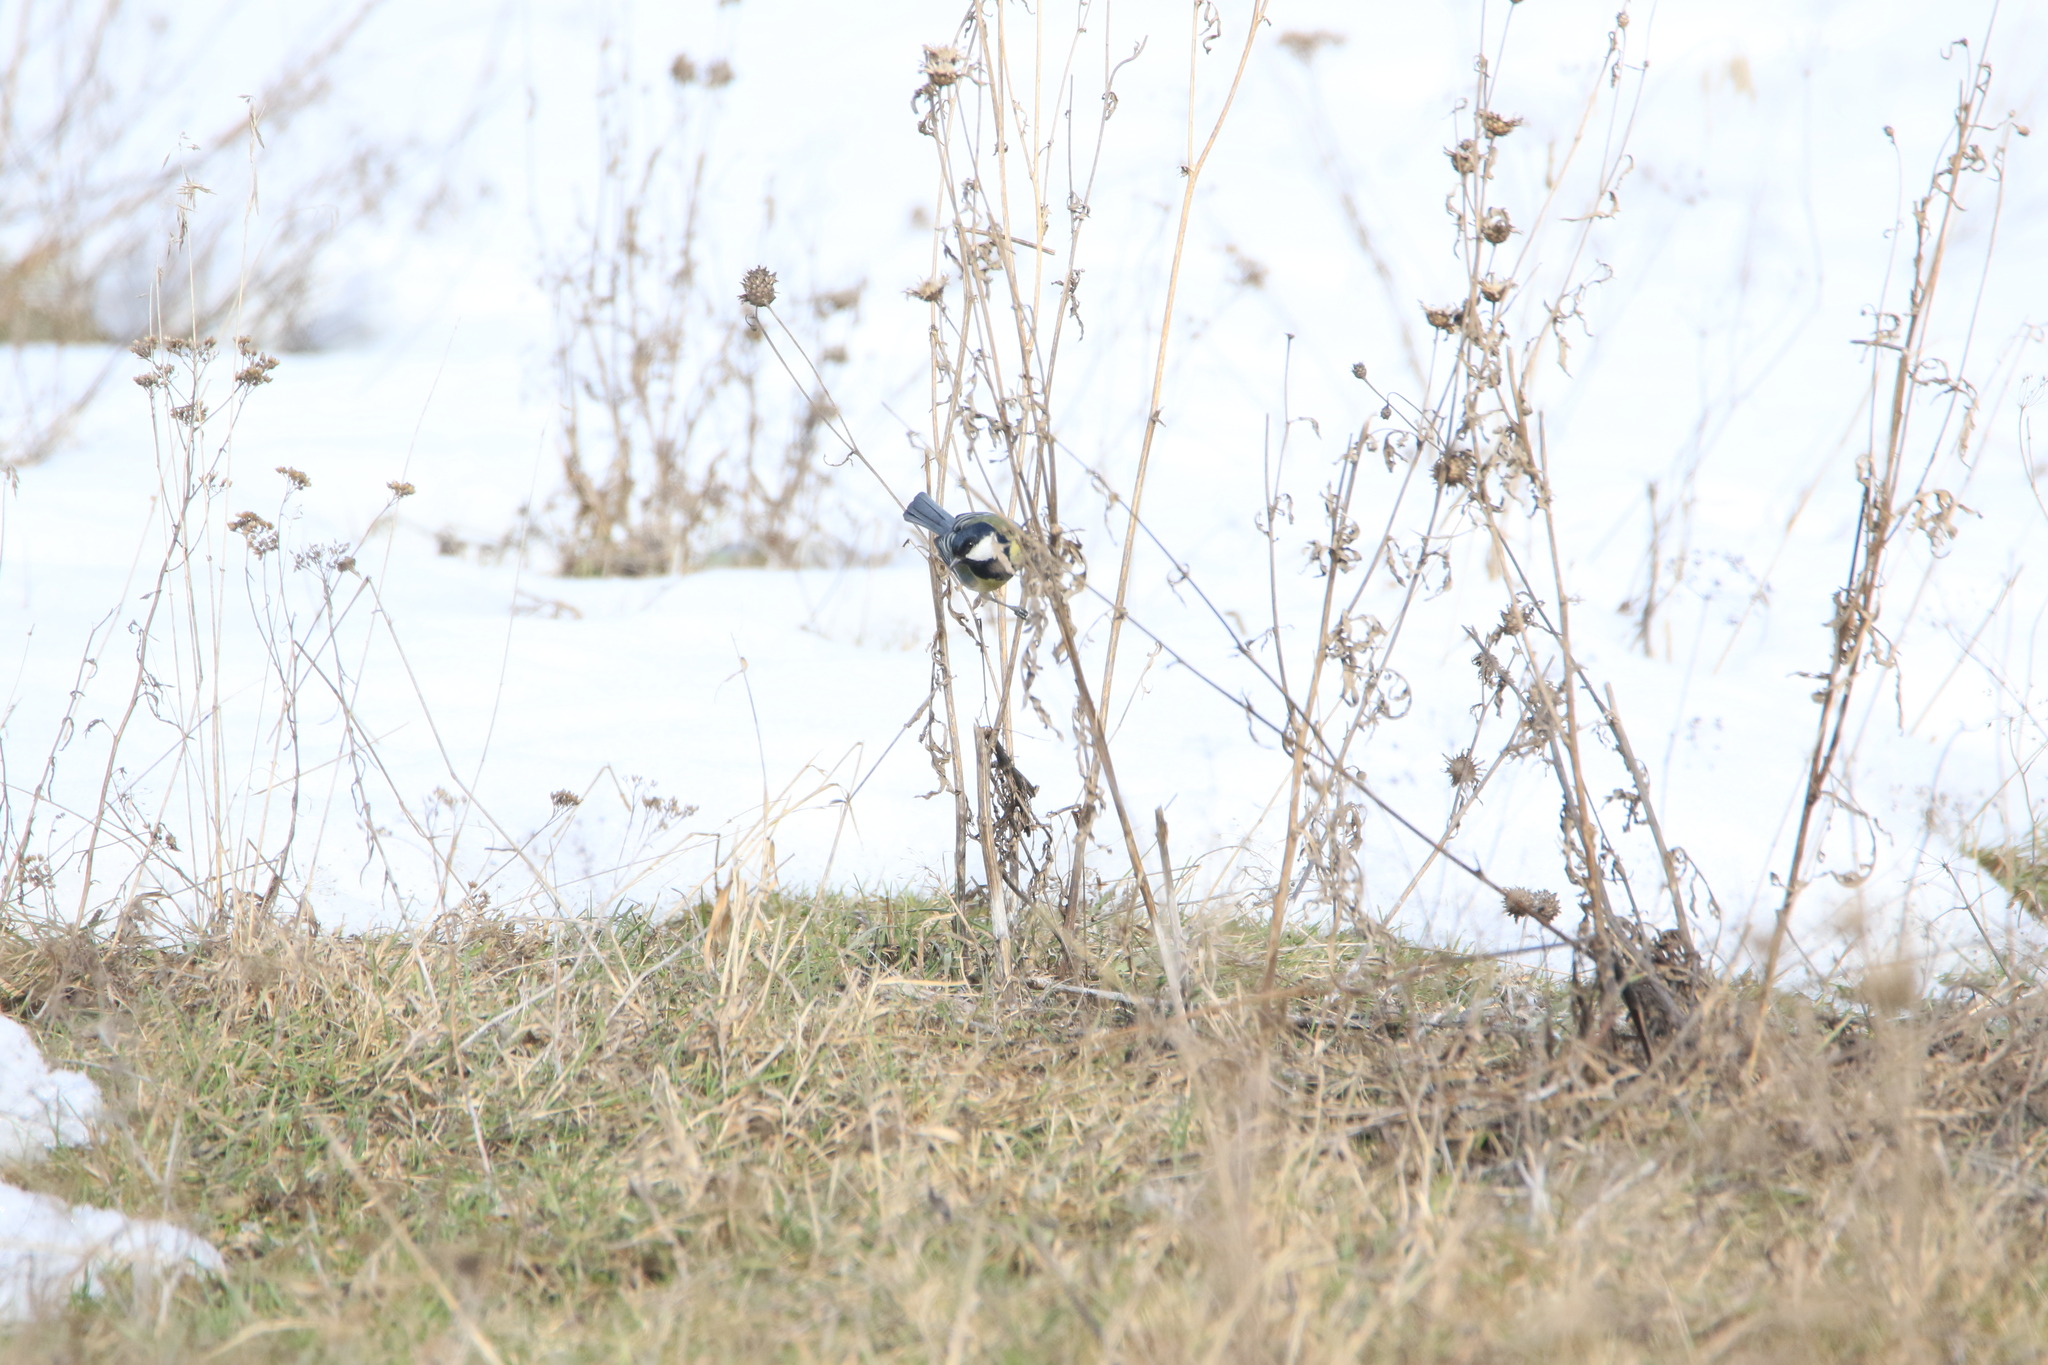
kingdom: Animalia
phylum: Chordata
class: Aves
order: Passeriformes
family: Paridae
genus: Parus
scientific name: Parus major
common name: Great tit
